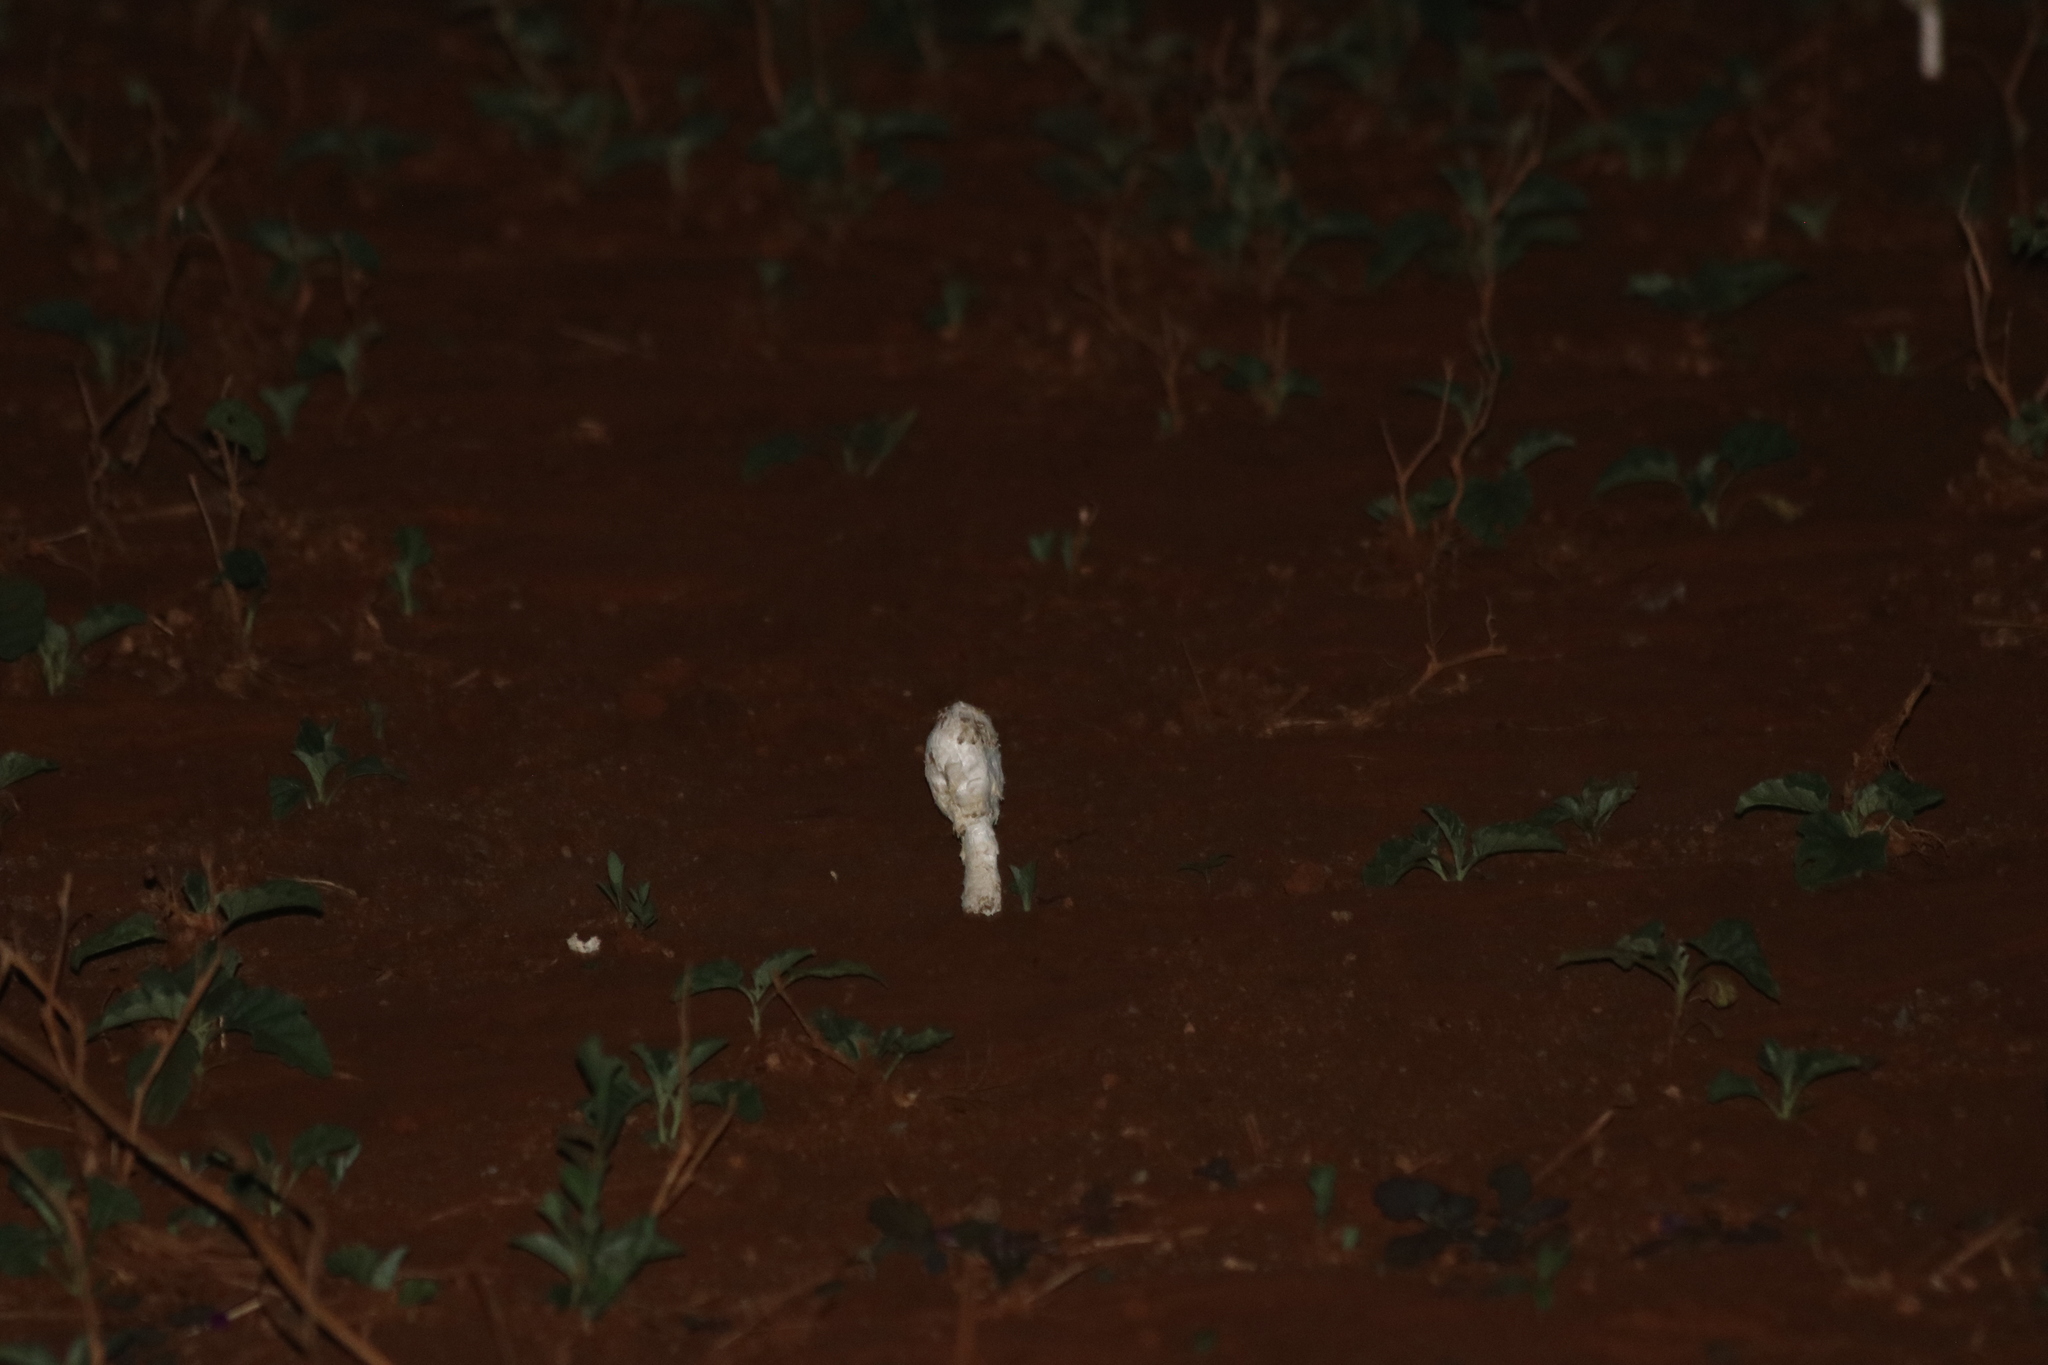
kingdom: Fungi
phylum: Basidiomycota
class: Agaricomycetes
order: Agaricales
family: Agaricaceae
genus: Podaxis
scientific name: Podaxis pistillaris
